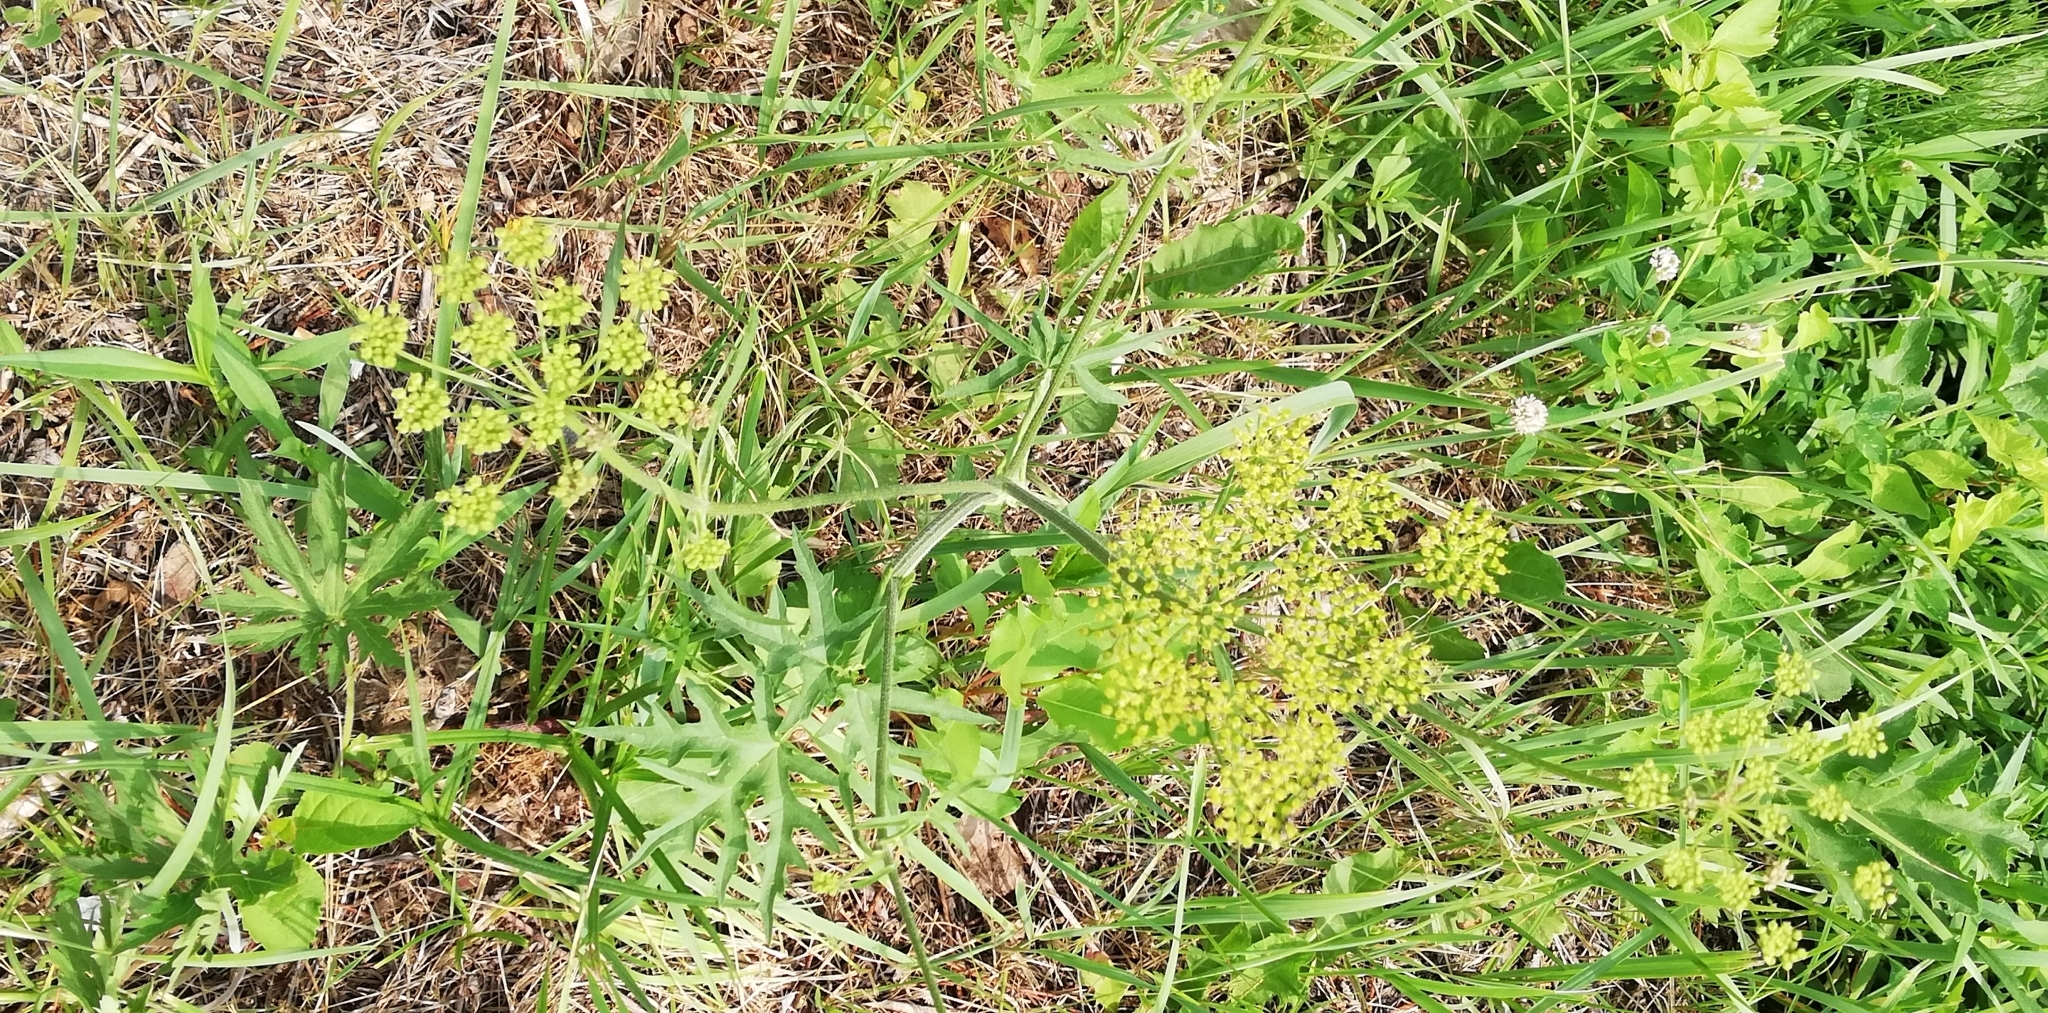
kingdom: Plantae
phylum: Tracheophyta
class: Magnoliopsida
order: Apiales
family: Apiaceae
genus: Heracleum
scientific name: Heracleum sphondylium
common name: Hogweed
